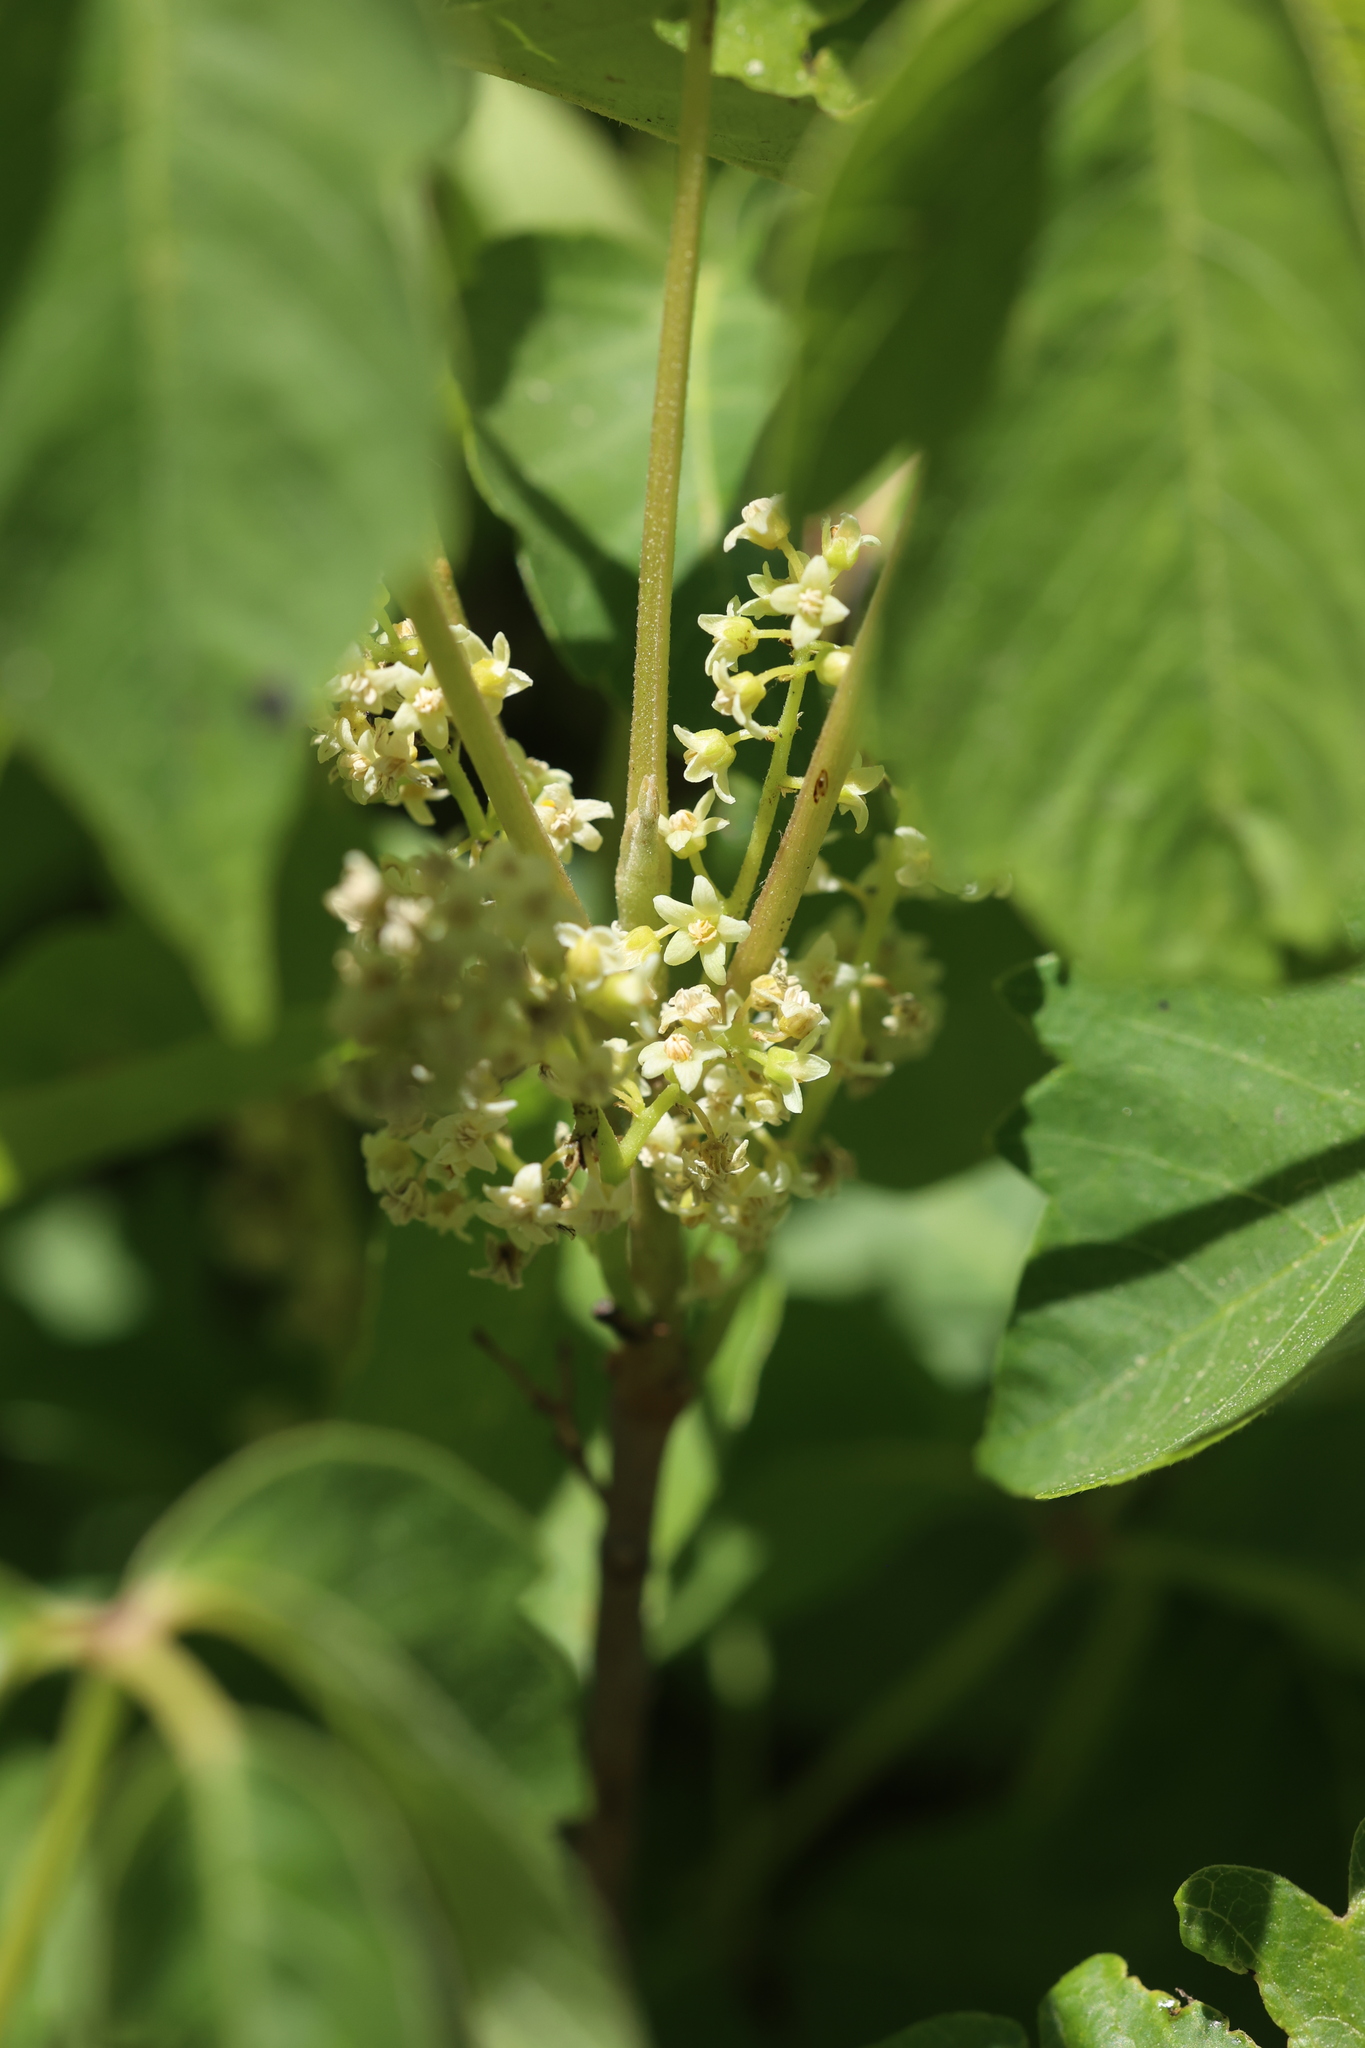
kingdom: Plantae
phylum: Tracheophyta
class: Magnoliopsida
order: Sapindales
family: Anacardiaceae
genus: Toxicodendron
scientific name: Toxicodendron rydbergii
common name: Rydberg's poison-ivy
